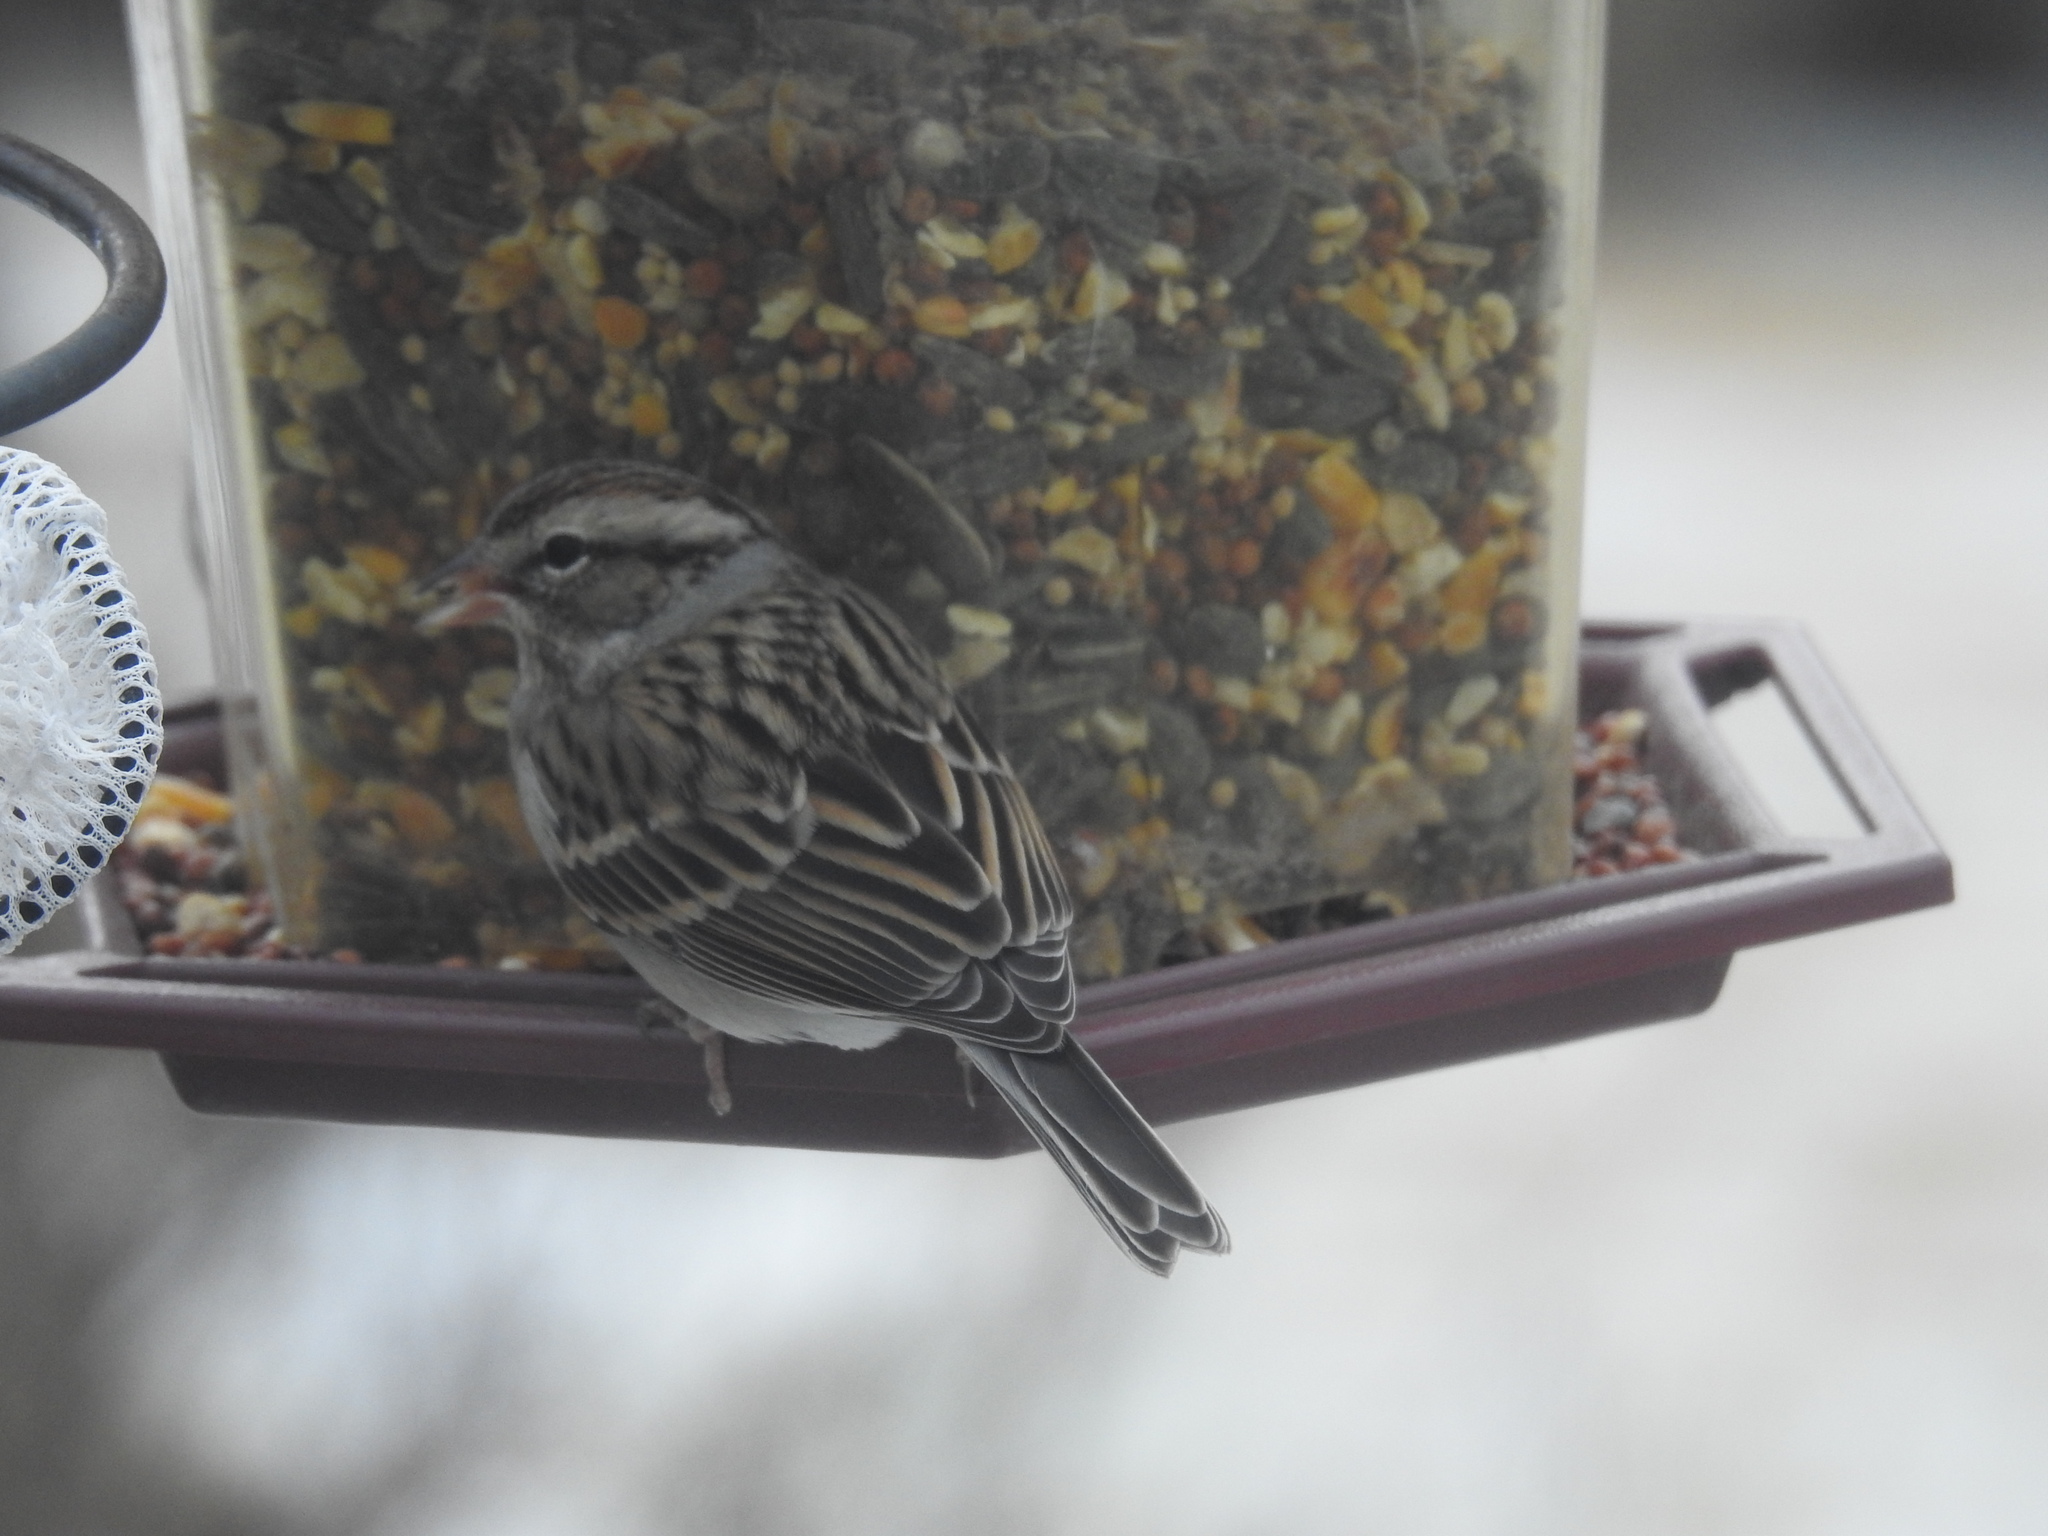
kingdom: Animalia
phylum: Chordata
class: Aves
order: Passeriformes
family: Passerellidae
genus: Spizella
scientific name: Spizella passerina
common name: Chipping sparrow
